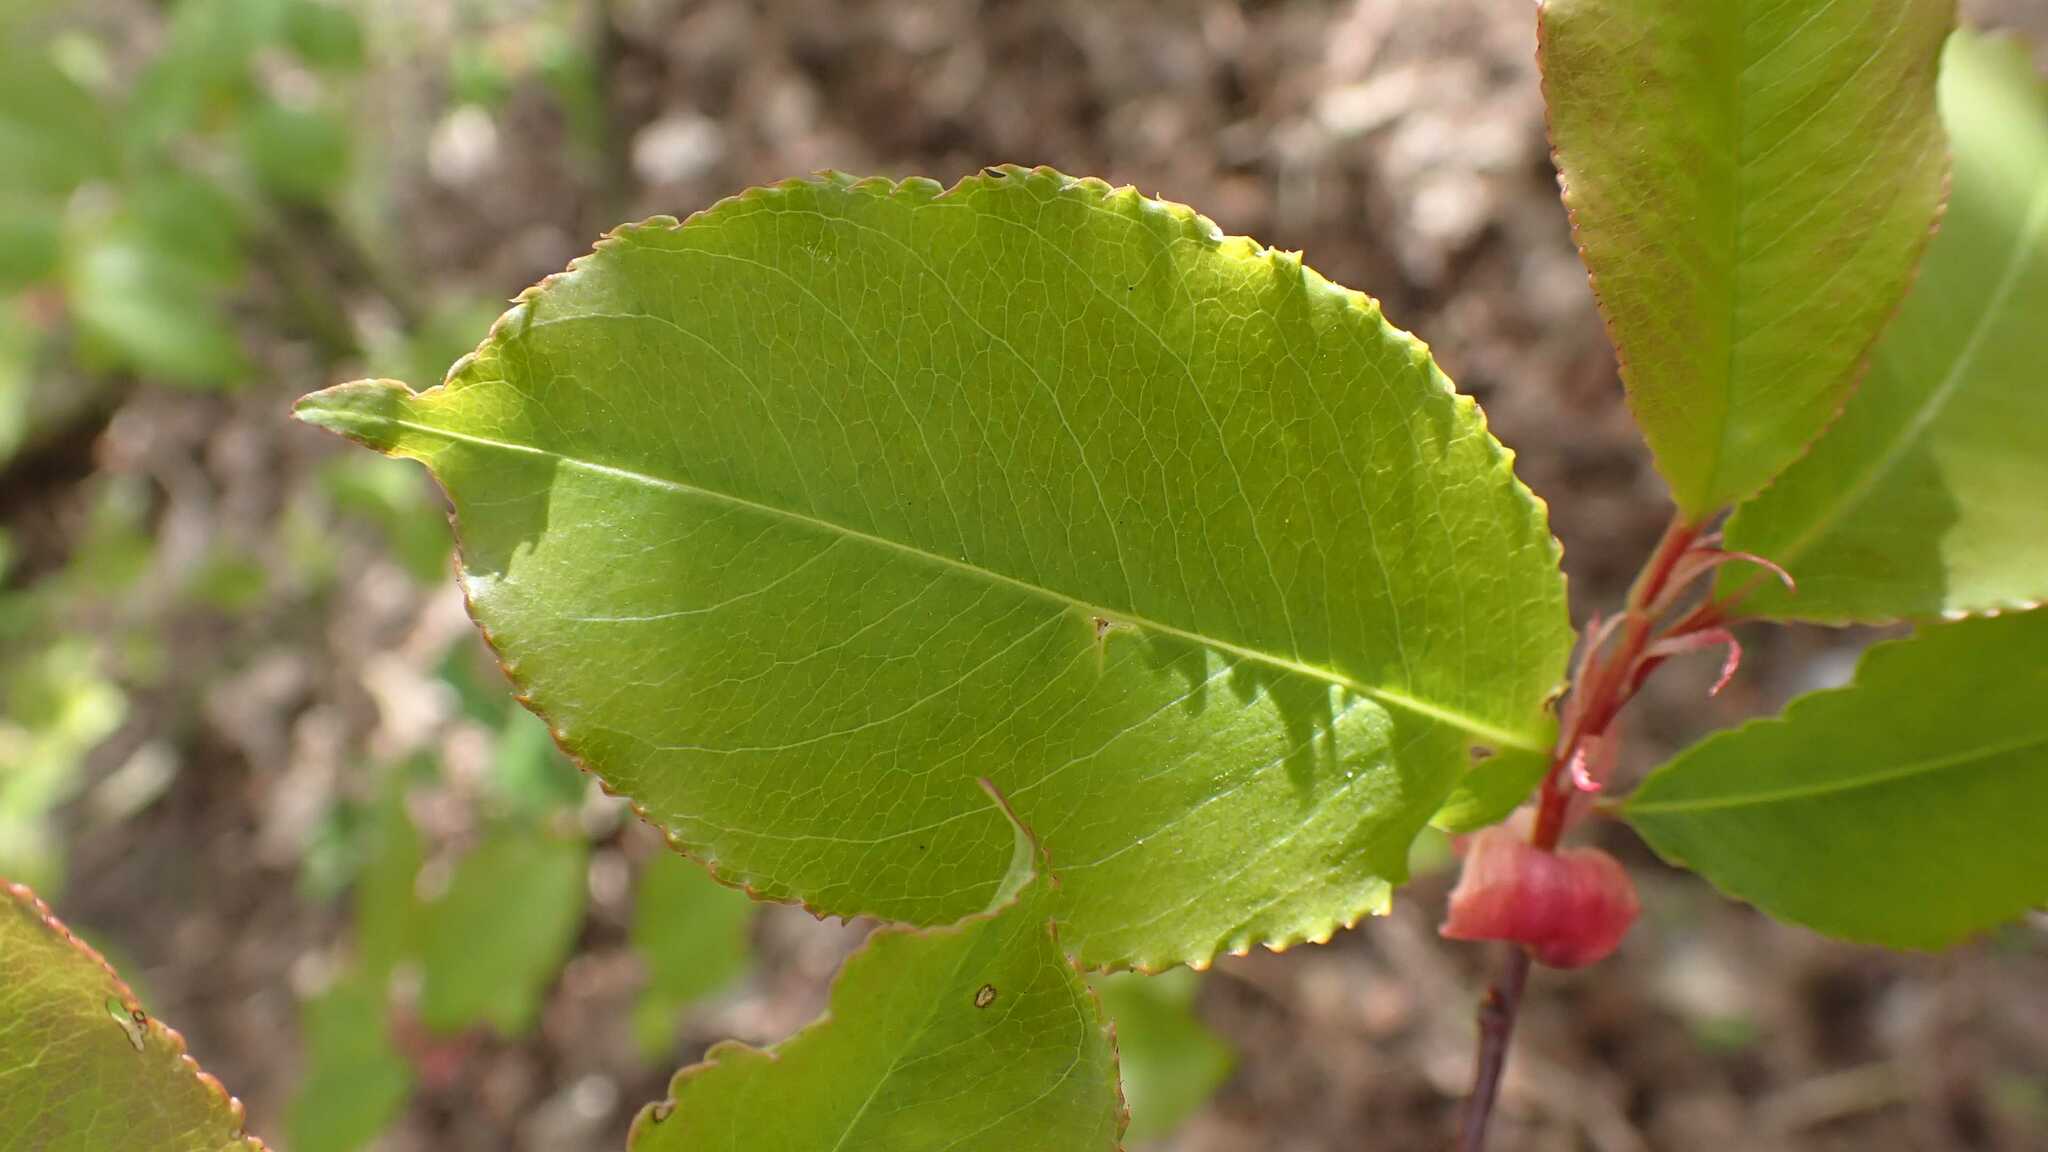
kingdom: Plantae
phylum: Tracheophyta
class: Magnoliopsida
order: Rosales
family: Rosaceae
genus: Prunus
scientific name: Prunus serotina
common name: Black cherry
